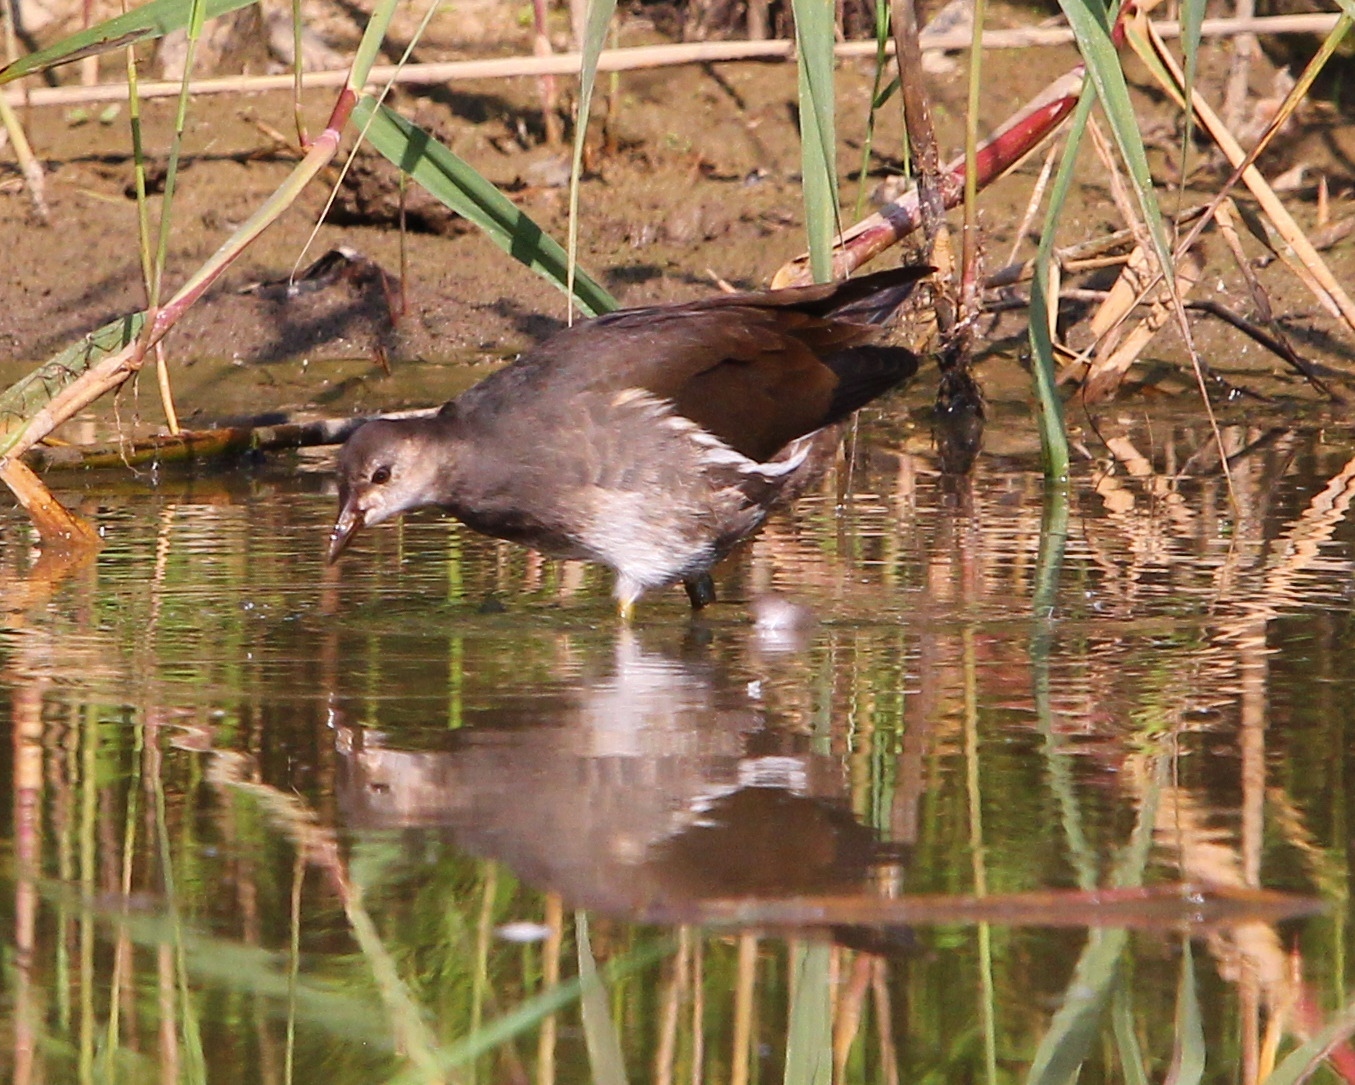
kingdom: Animalia
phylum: Chordata
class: Aves
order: Gruiformes
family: Rallidae
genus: Gallinula
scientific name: Gallinula chloropus
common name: Common moorhen
